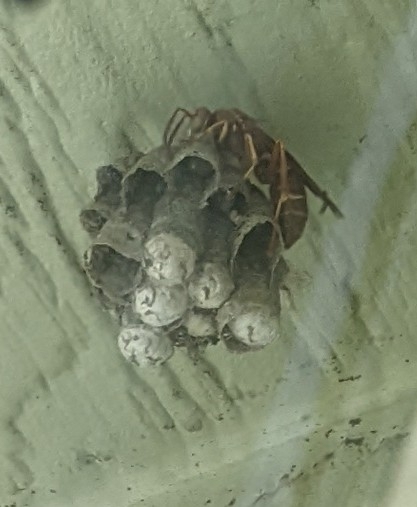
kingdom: Animalia
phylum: Arthropoda
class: Insecta
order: Hymenoptera
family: Vespidae
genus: Fuscopolistes
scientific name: Fuscopolistes
